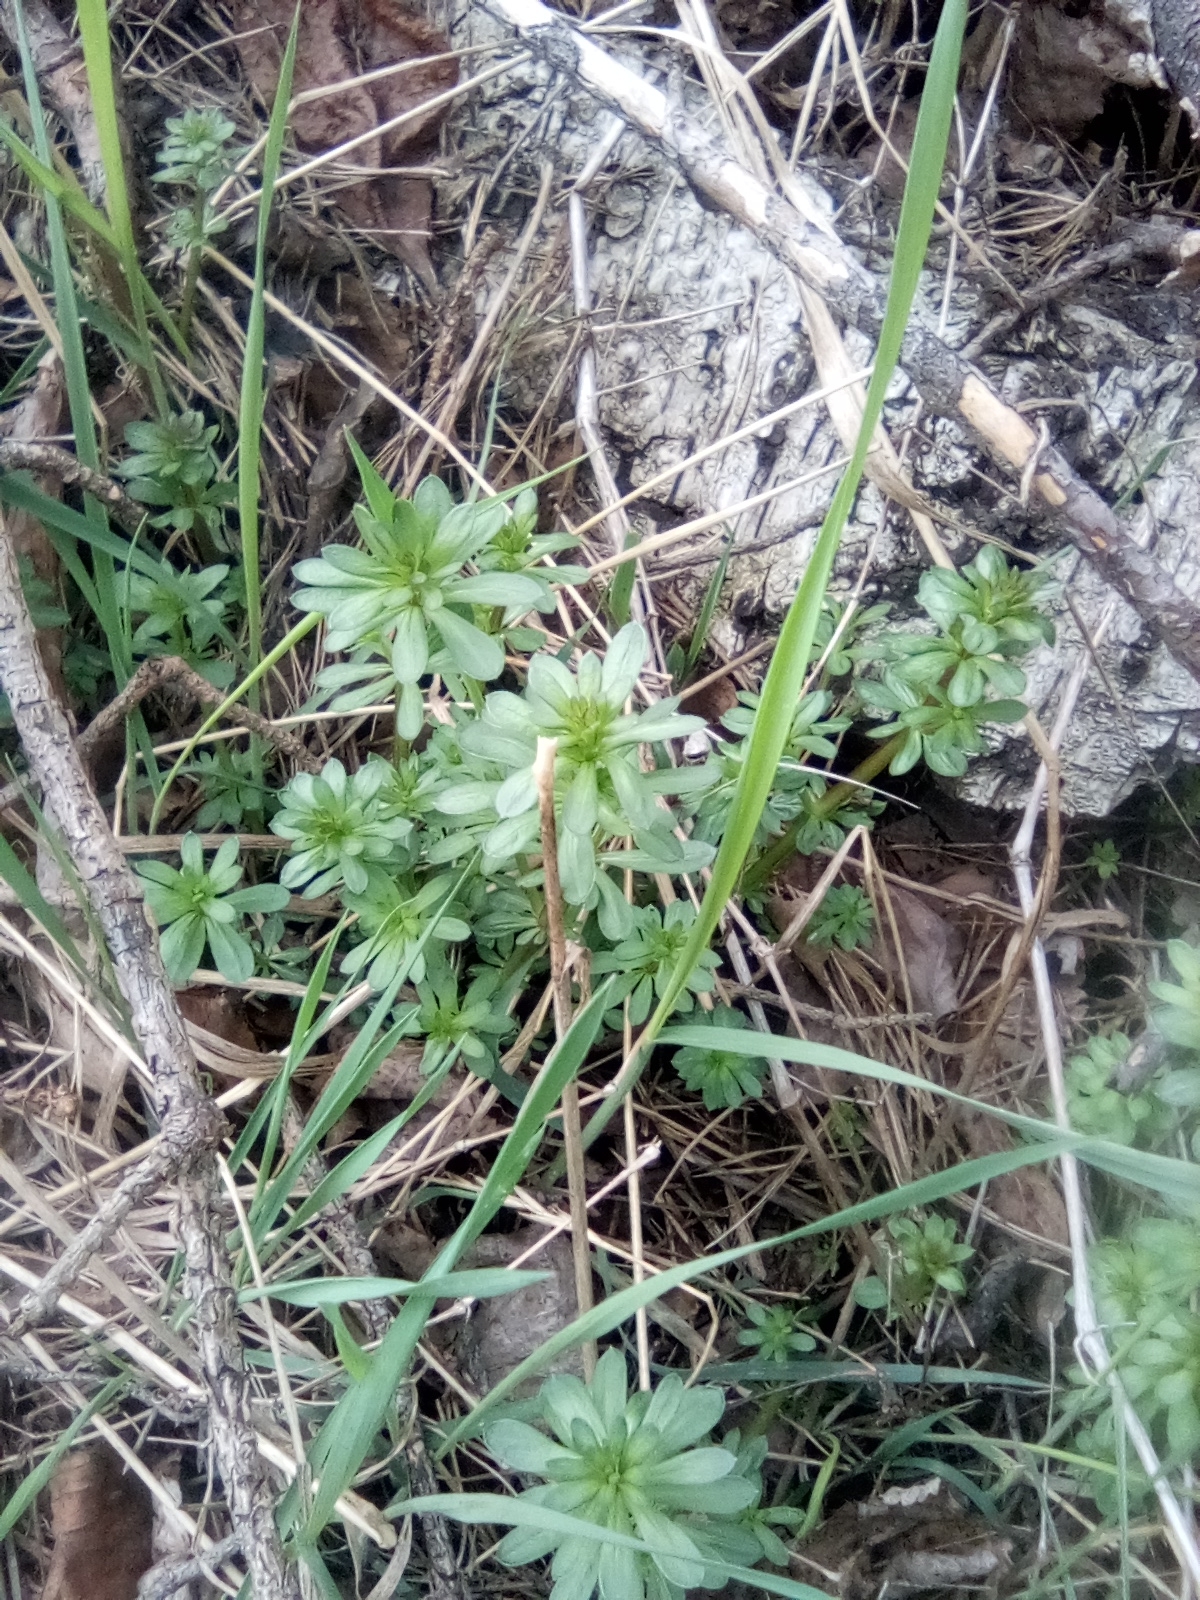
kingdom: Plantae
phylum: Tracheophyta
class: Magnoliopsida
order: Gentianales
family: Rubiaceae
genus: Galium
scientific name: Galium mollugo
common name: Hedge bedstraw
